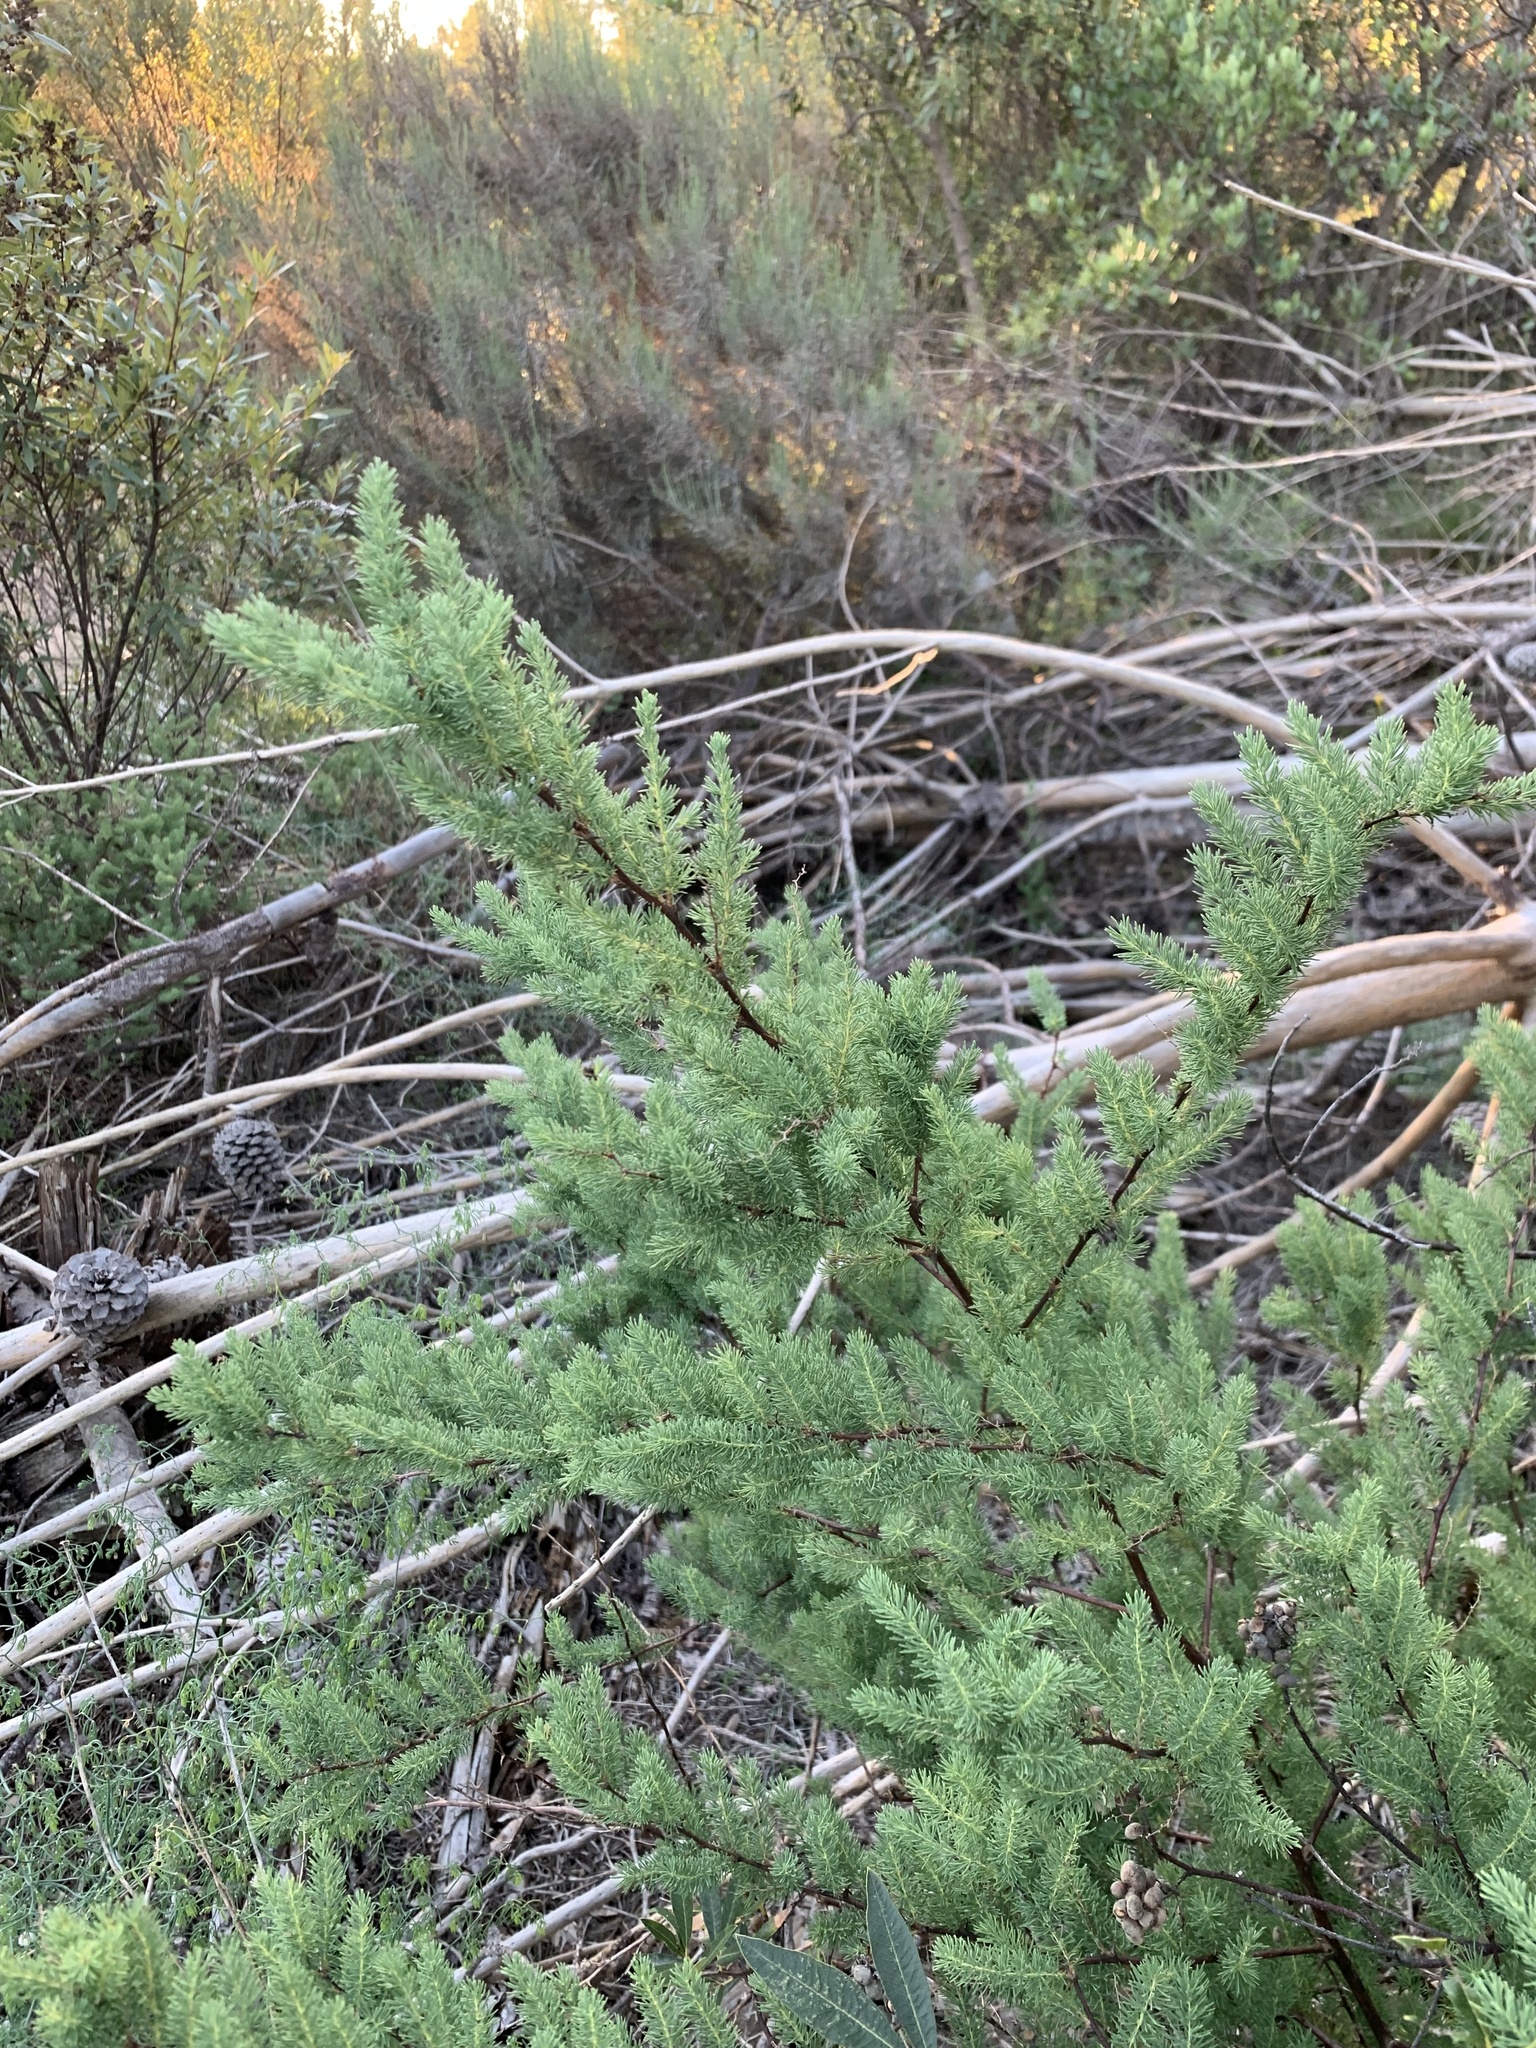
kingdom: Plantae
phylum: Tracheophyta
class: Liliopsida
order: Asparagales
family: Asparagaceae
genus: Asparagus
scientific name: Asparagus rubicundus
